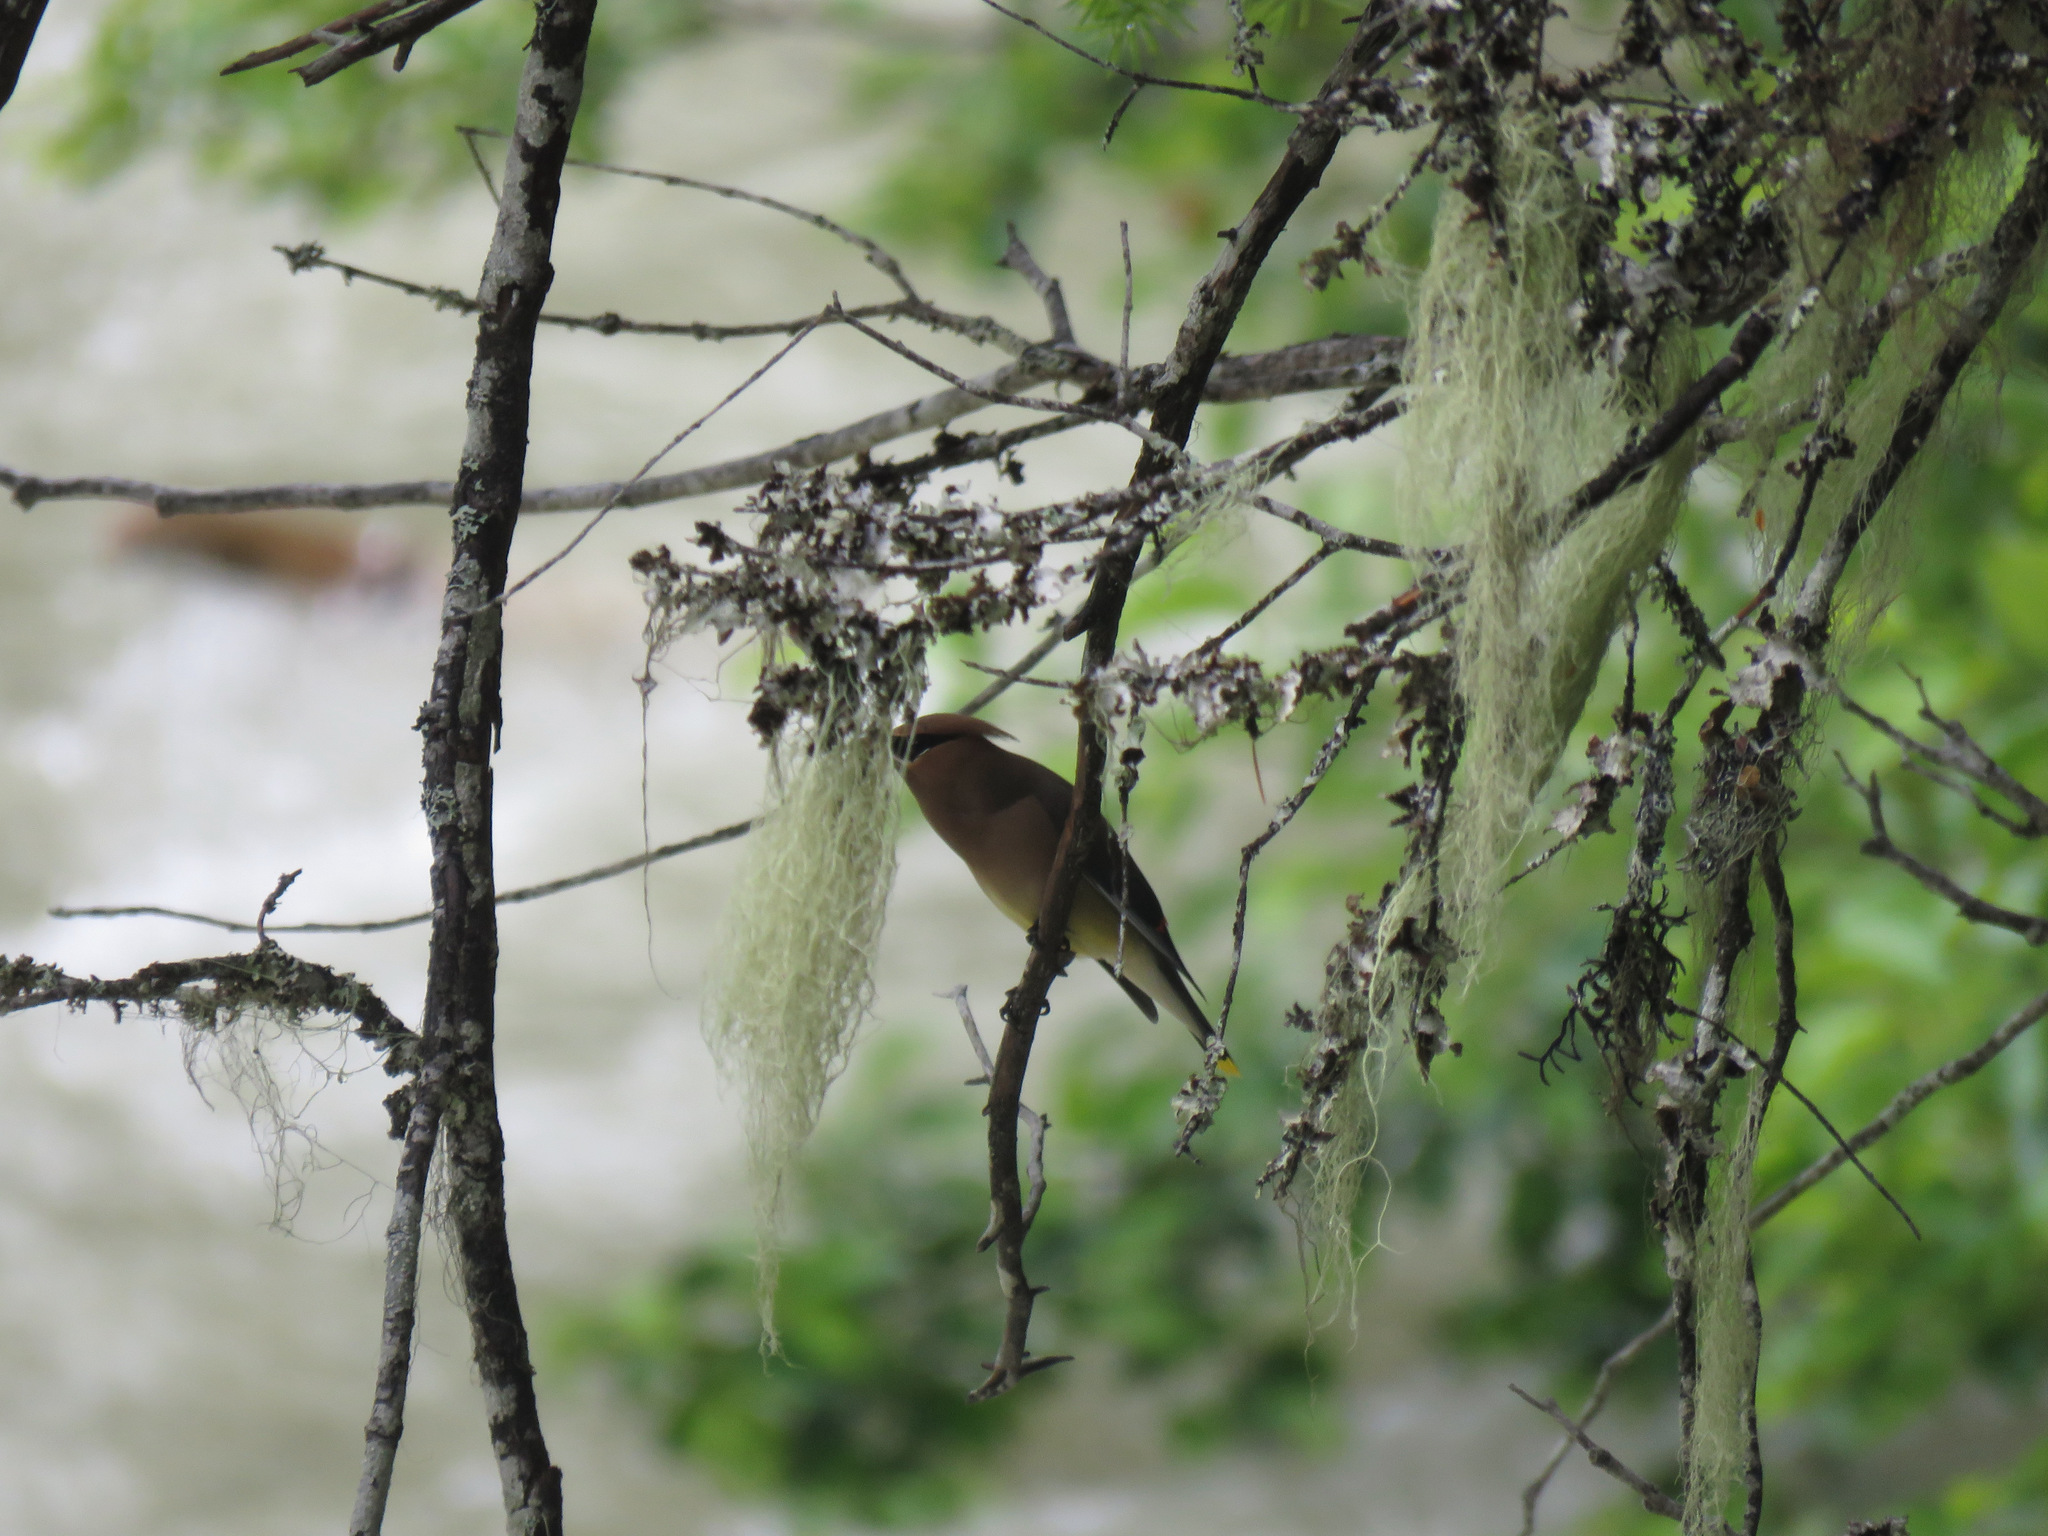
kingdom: Animalia
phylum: Chordata
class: Aves
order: Passeriformes
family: Bombycillidae
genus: Bombycilla
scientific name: Bombycilla cedrorum
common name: Cedar waxwing
